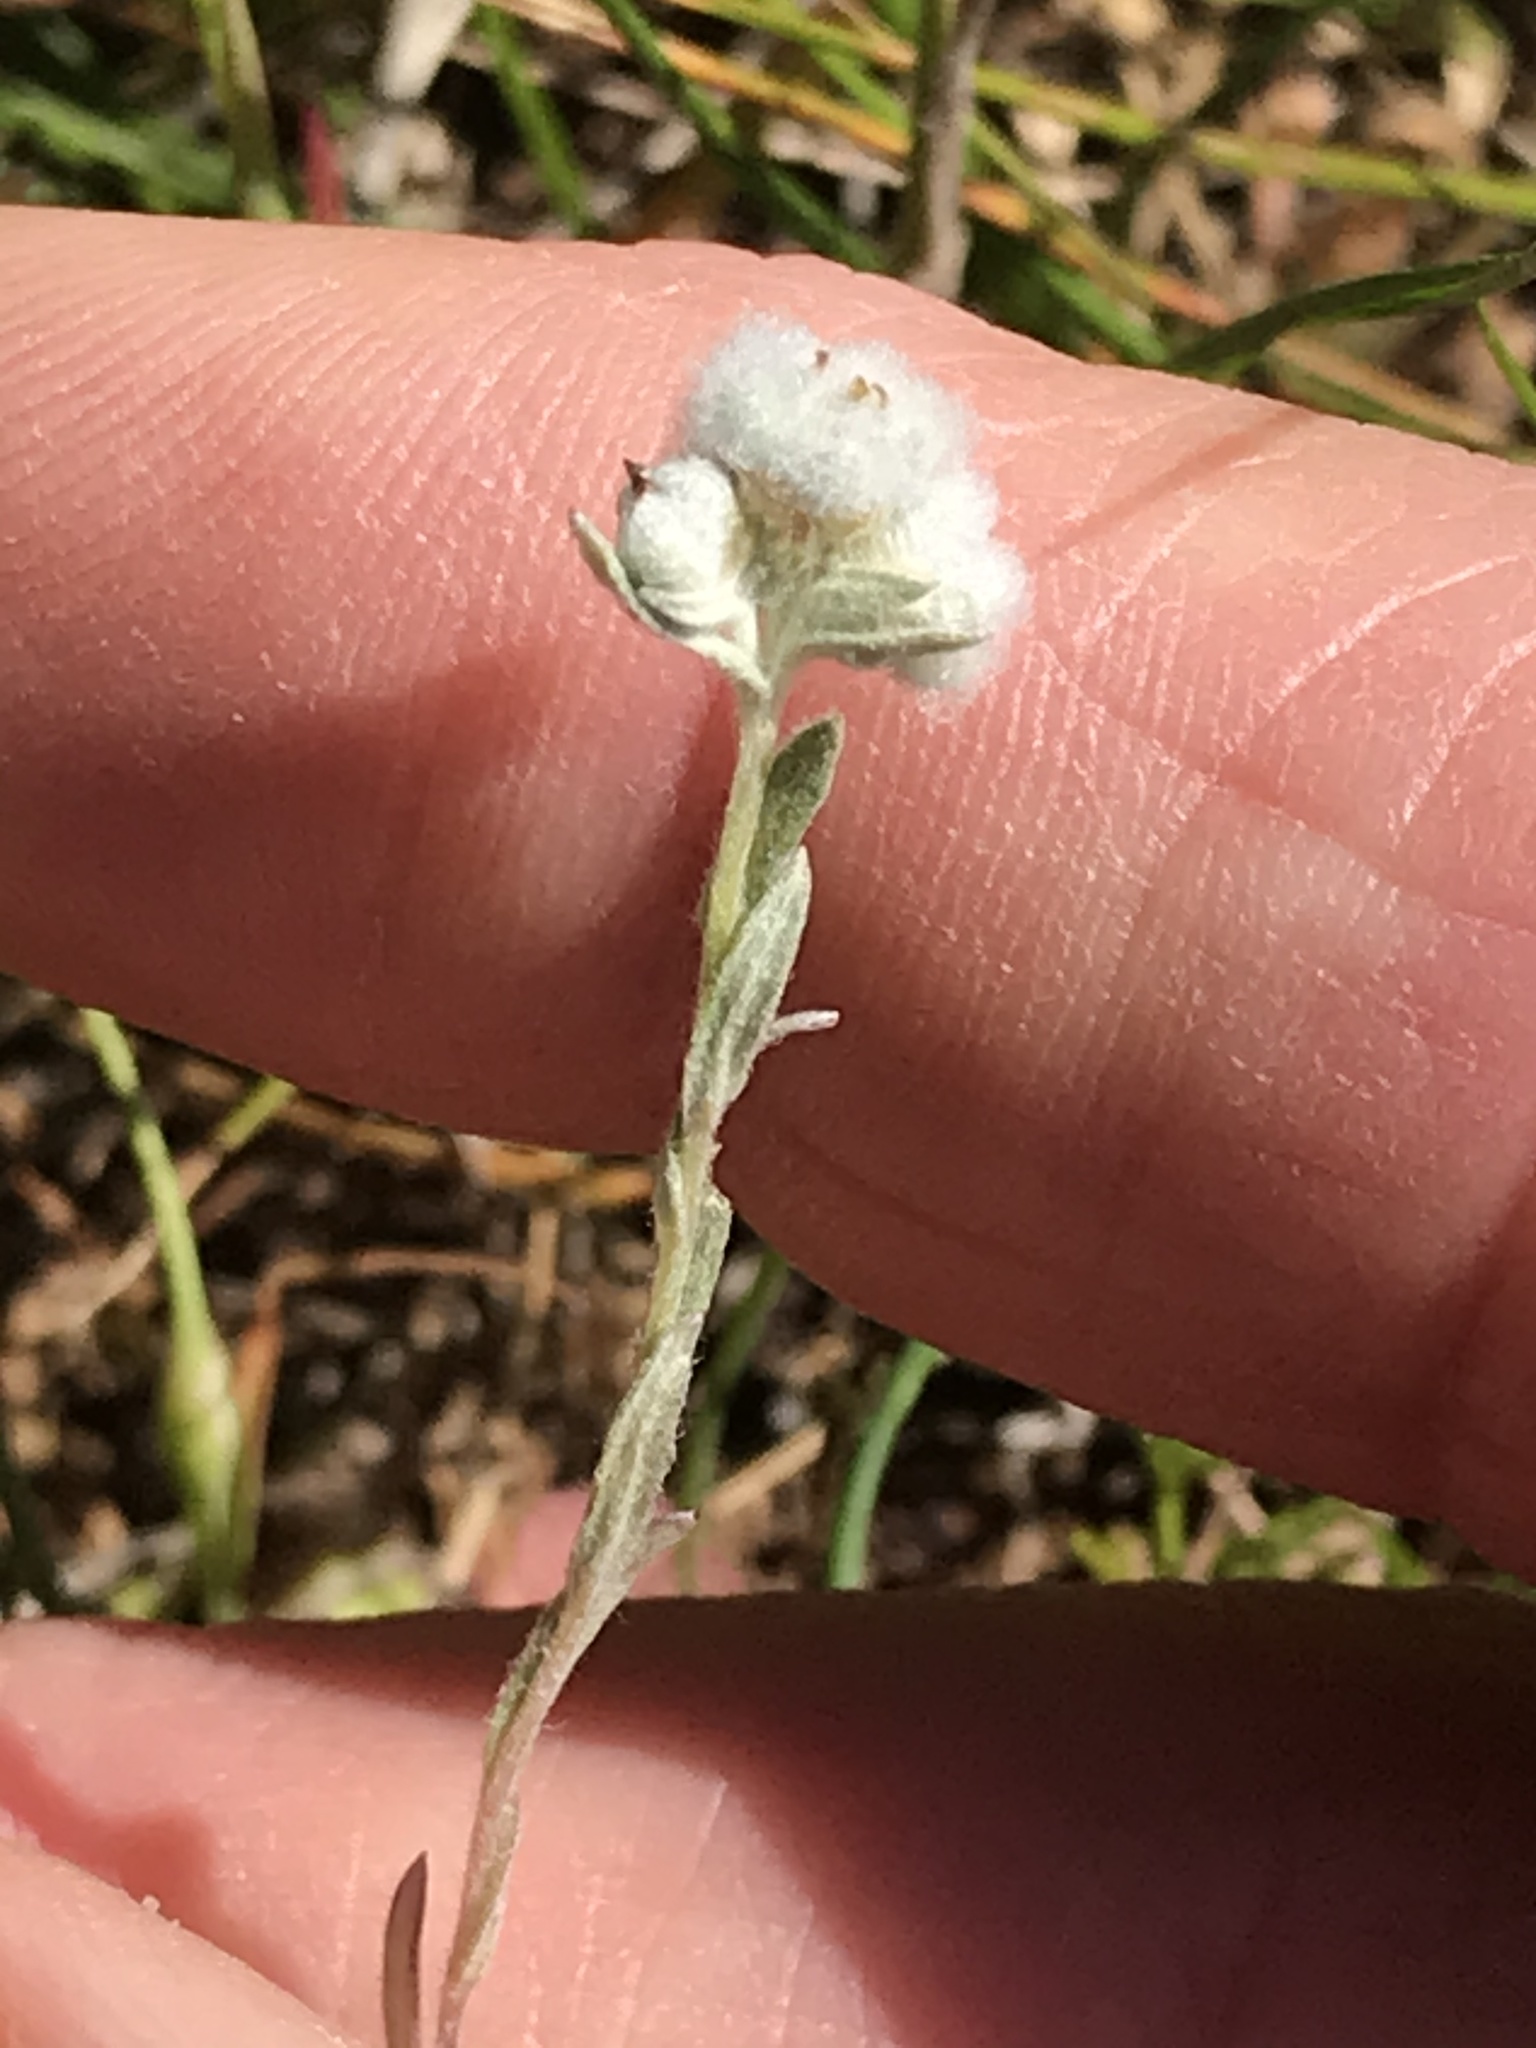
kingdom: Plantae
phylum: Tracheophyta
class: Magnoliopsida
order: Asterales
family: Asteraceae
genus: Bombycilaena
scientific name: Bombycilaena californica
